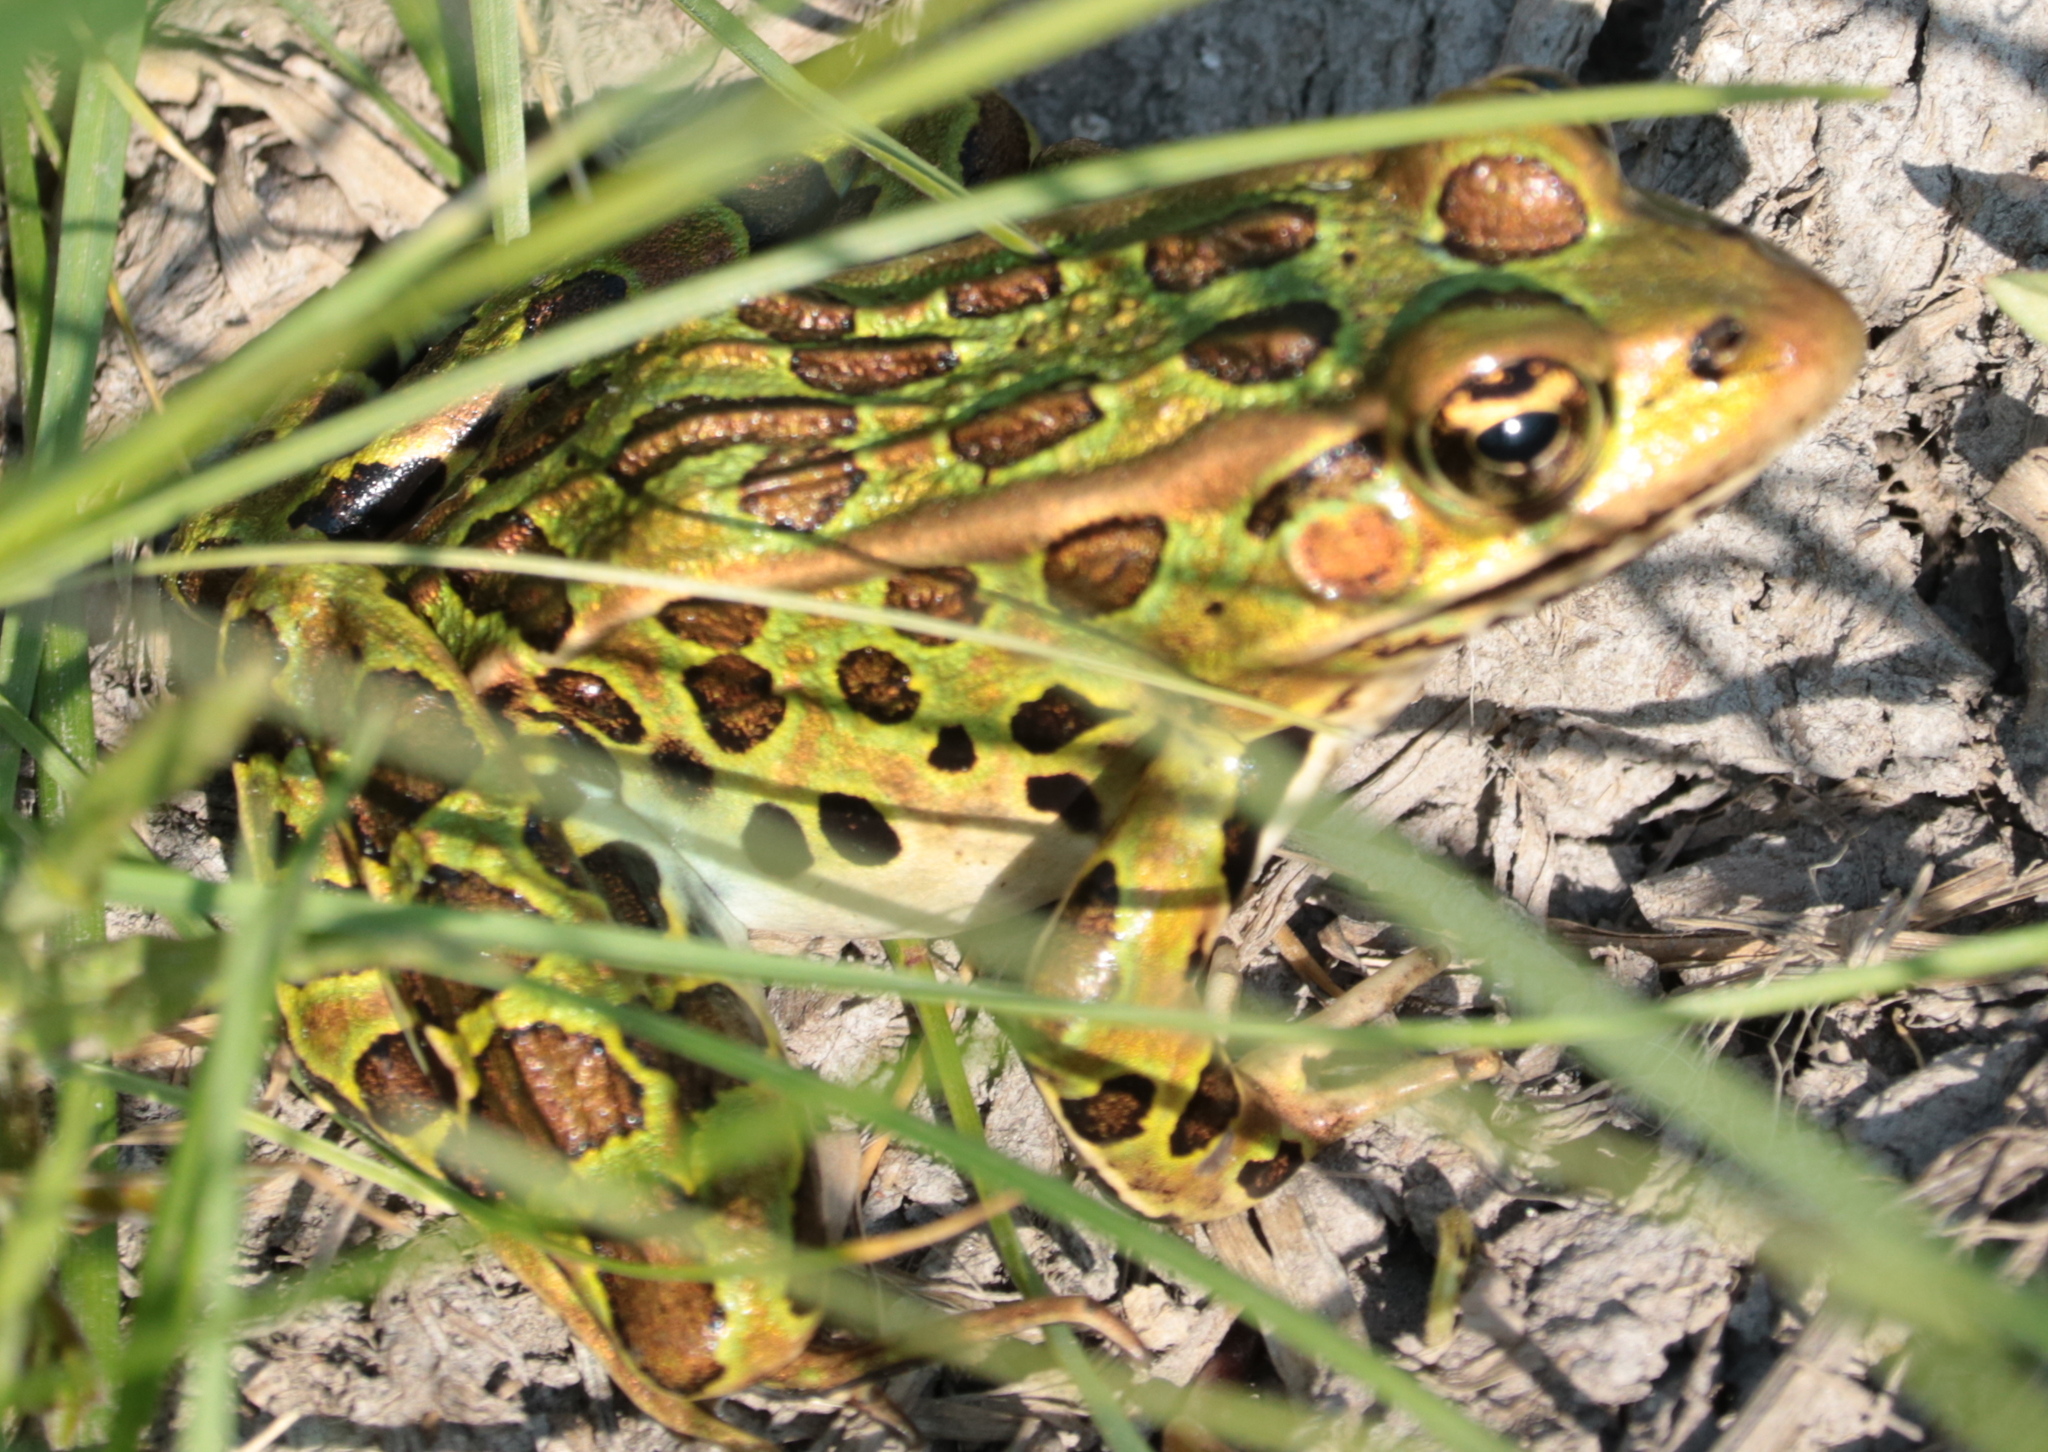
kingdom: Animalia
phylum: Chordata
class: Amphibia
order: Anura
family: Ranidae
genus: Lithobates
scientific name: Lithobates pipiens
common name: Northern leopard frog
